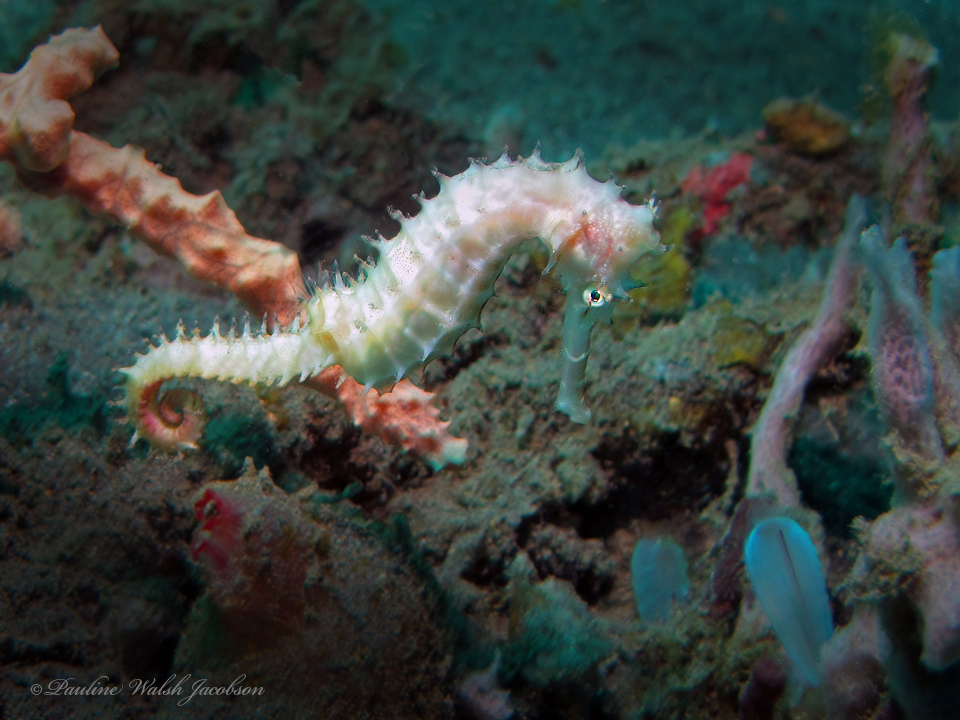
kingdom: Animalia
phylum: Chordata
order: Syngnathiformes
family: Syngnathidae
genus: Hippocampus
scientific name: Hippocampus histrix
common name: Longspine seahorse
